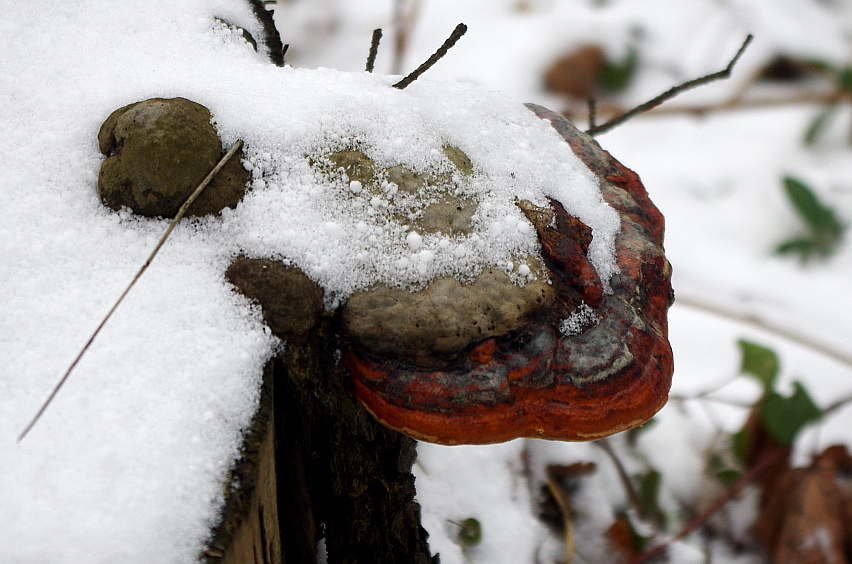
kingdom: Fungi
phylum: Basidiomycota
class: Agaricomycetes
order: Polyporales
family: Fomitopsidaceae
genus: Fomitopsis
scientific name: Fomitopsis pinicola
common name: Red-belted bracket
